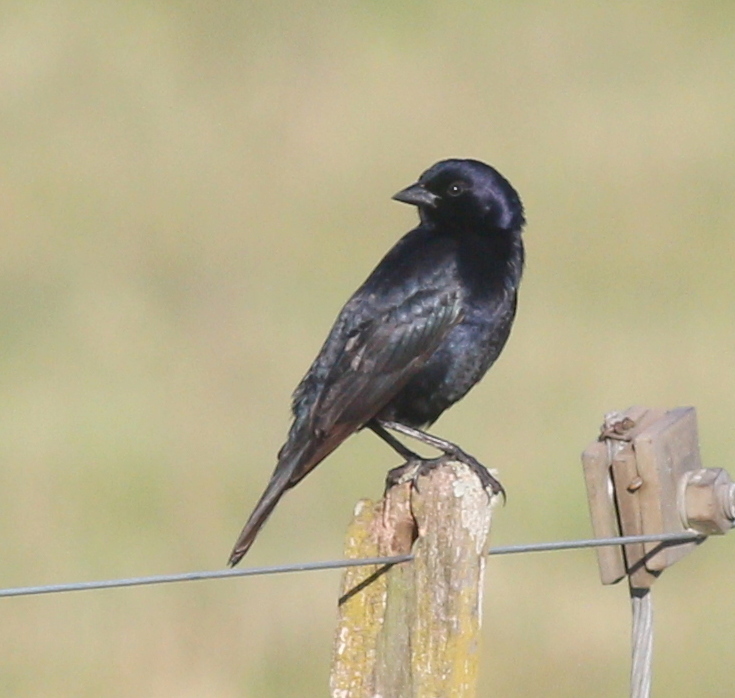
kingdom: Animalia
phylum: Chordata
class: Aves
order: Passeriformes
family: Icteridae
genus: Molothrus
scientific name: Molothrus bonariensis
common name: Shiny cowbird
